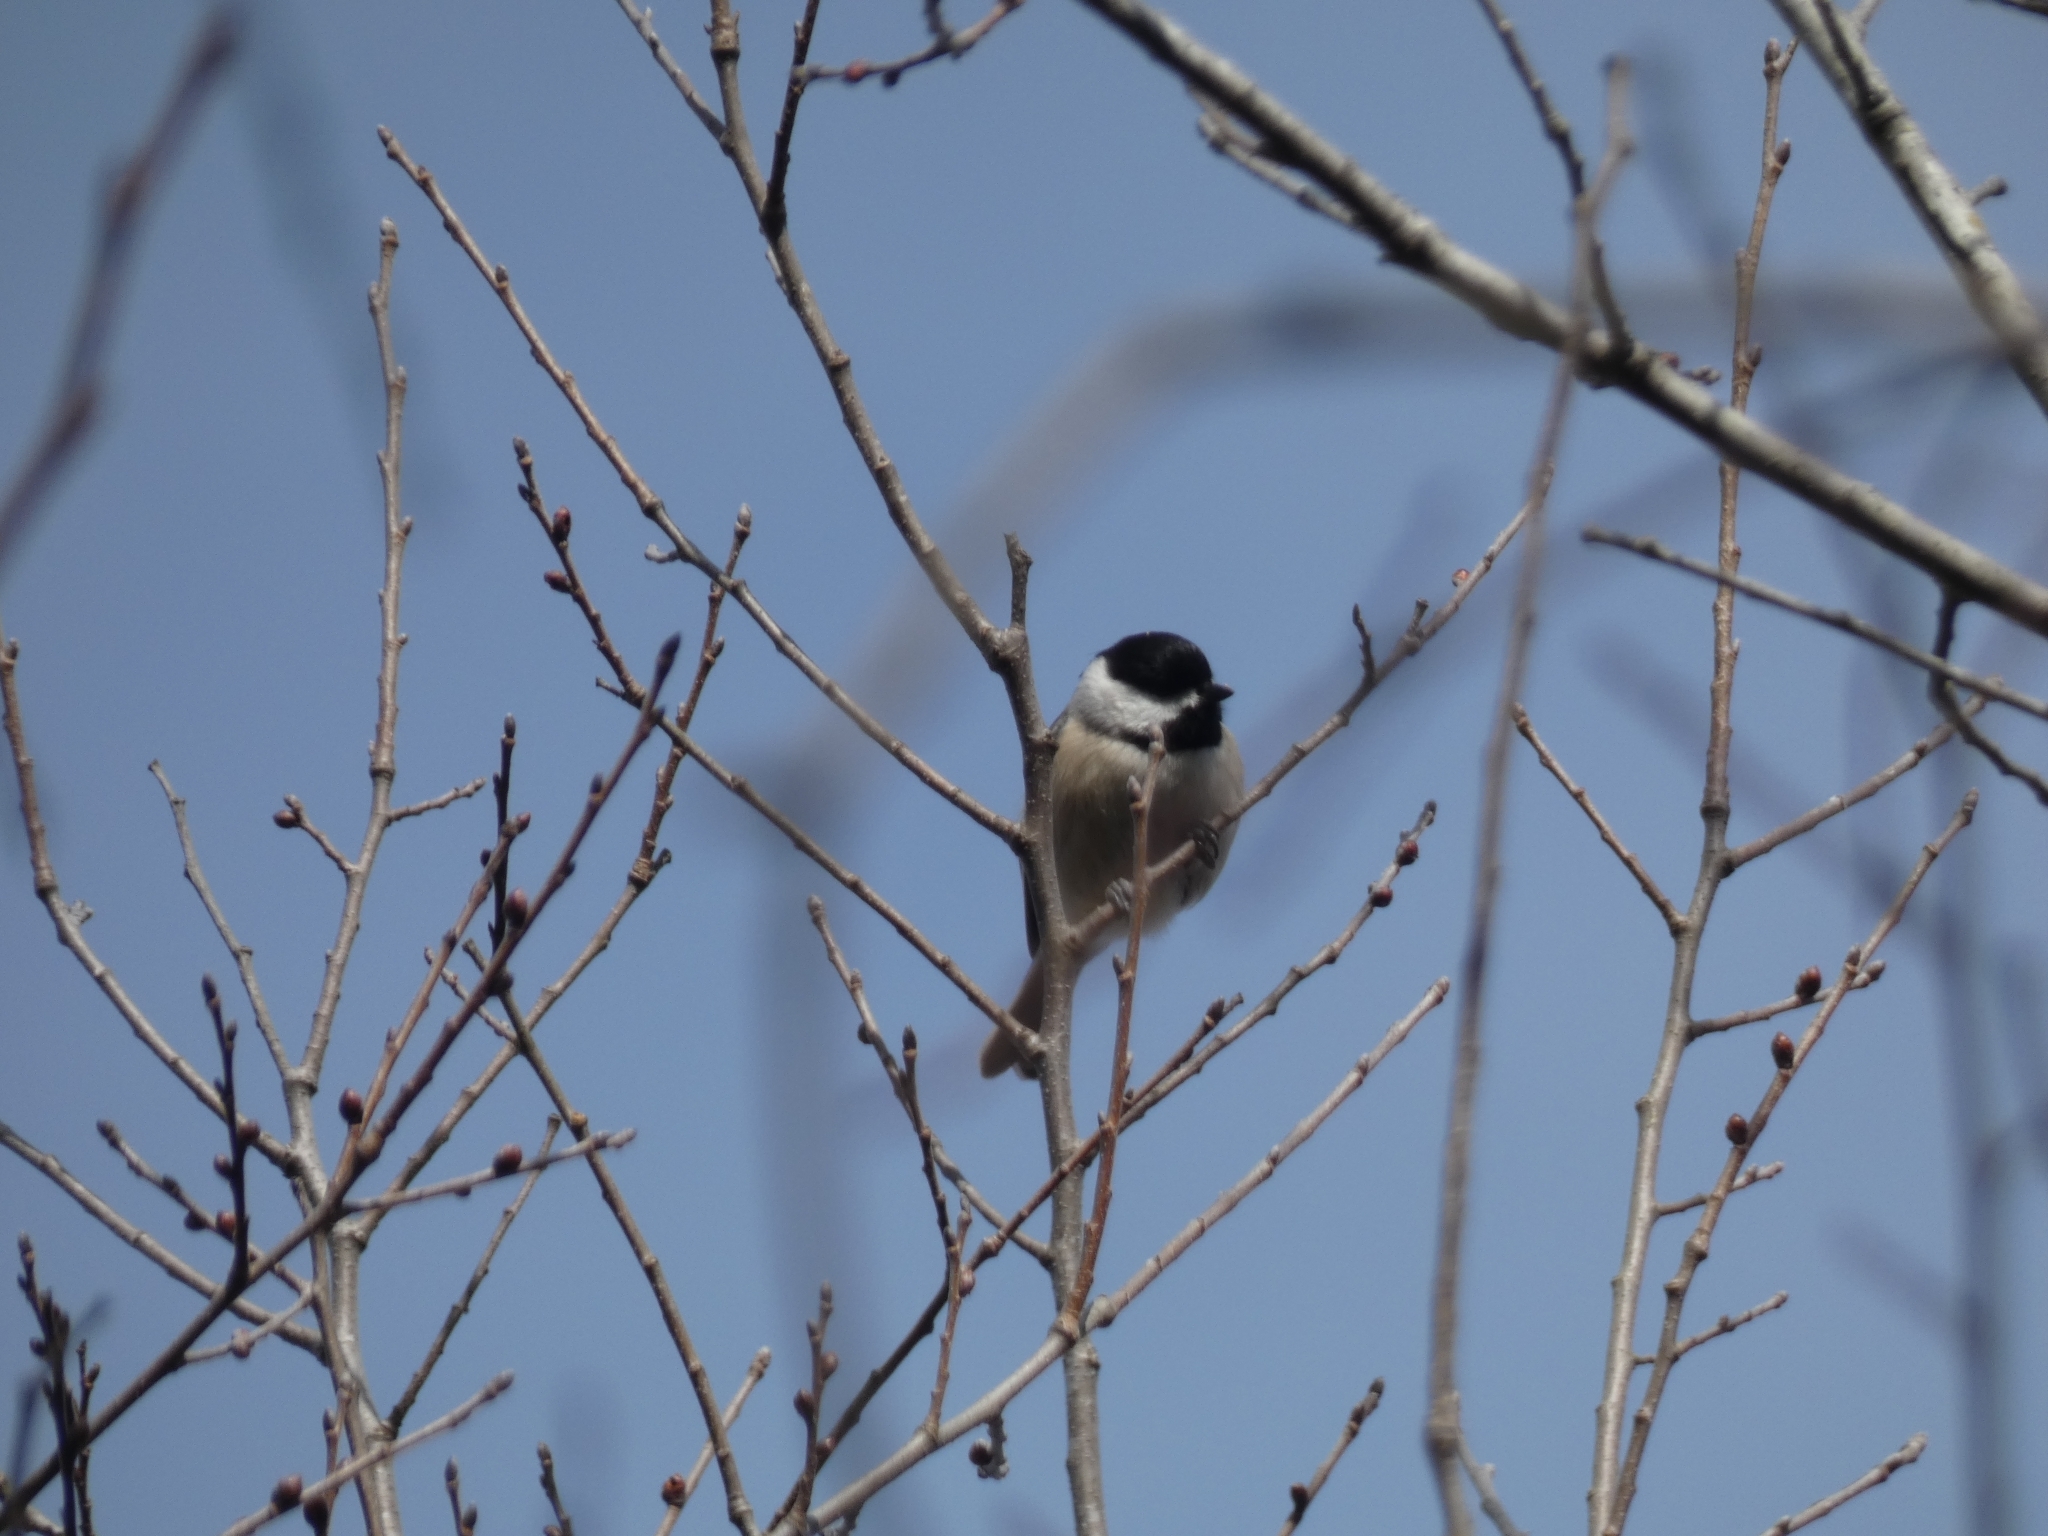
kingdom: Animalia
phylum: Chordata
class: Aves
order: Passeriformes
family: Paridae
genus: Poecile
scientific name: Poecile carolinensis
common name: Carolina chickadee
